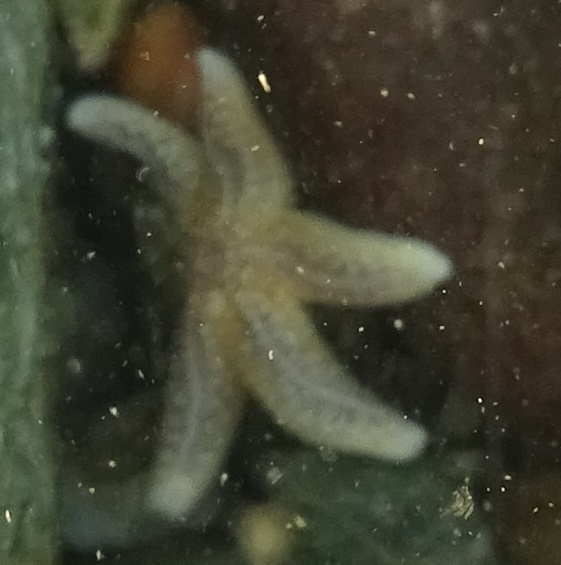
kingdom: Animalia
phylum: Echinodermata
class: Asteroidea
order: Forcipulatida
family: Asteriidae
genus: Asterias
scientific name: Asterias rubens
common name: Common starfish
